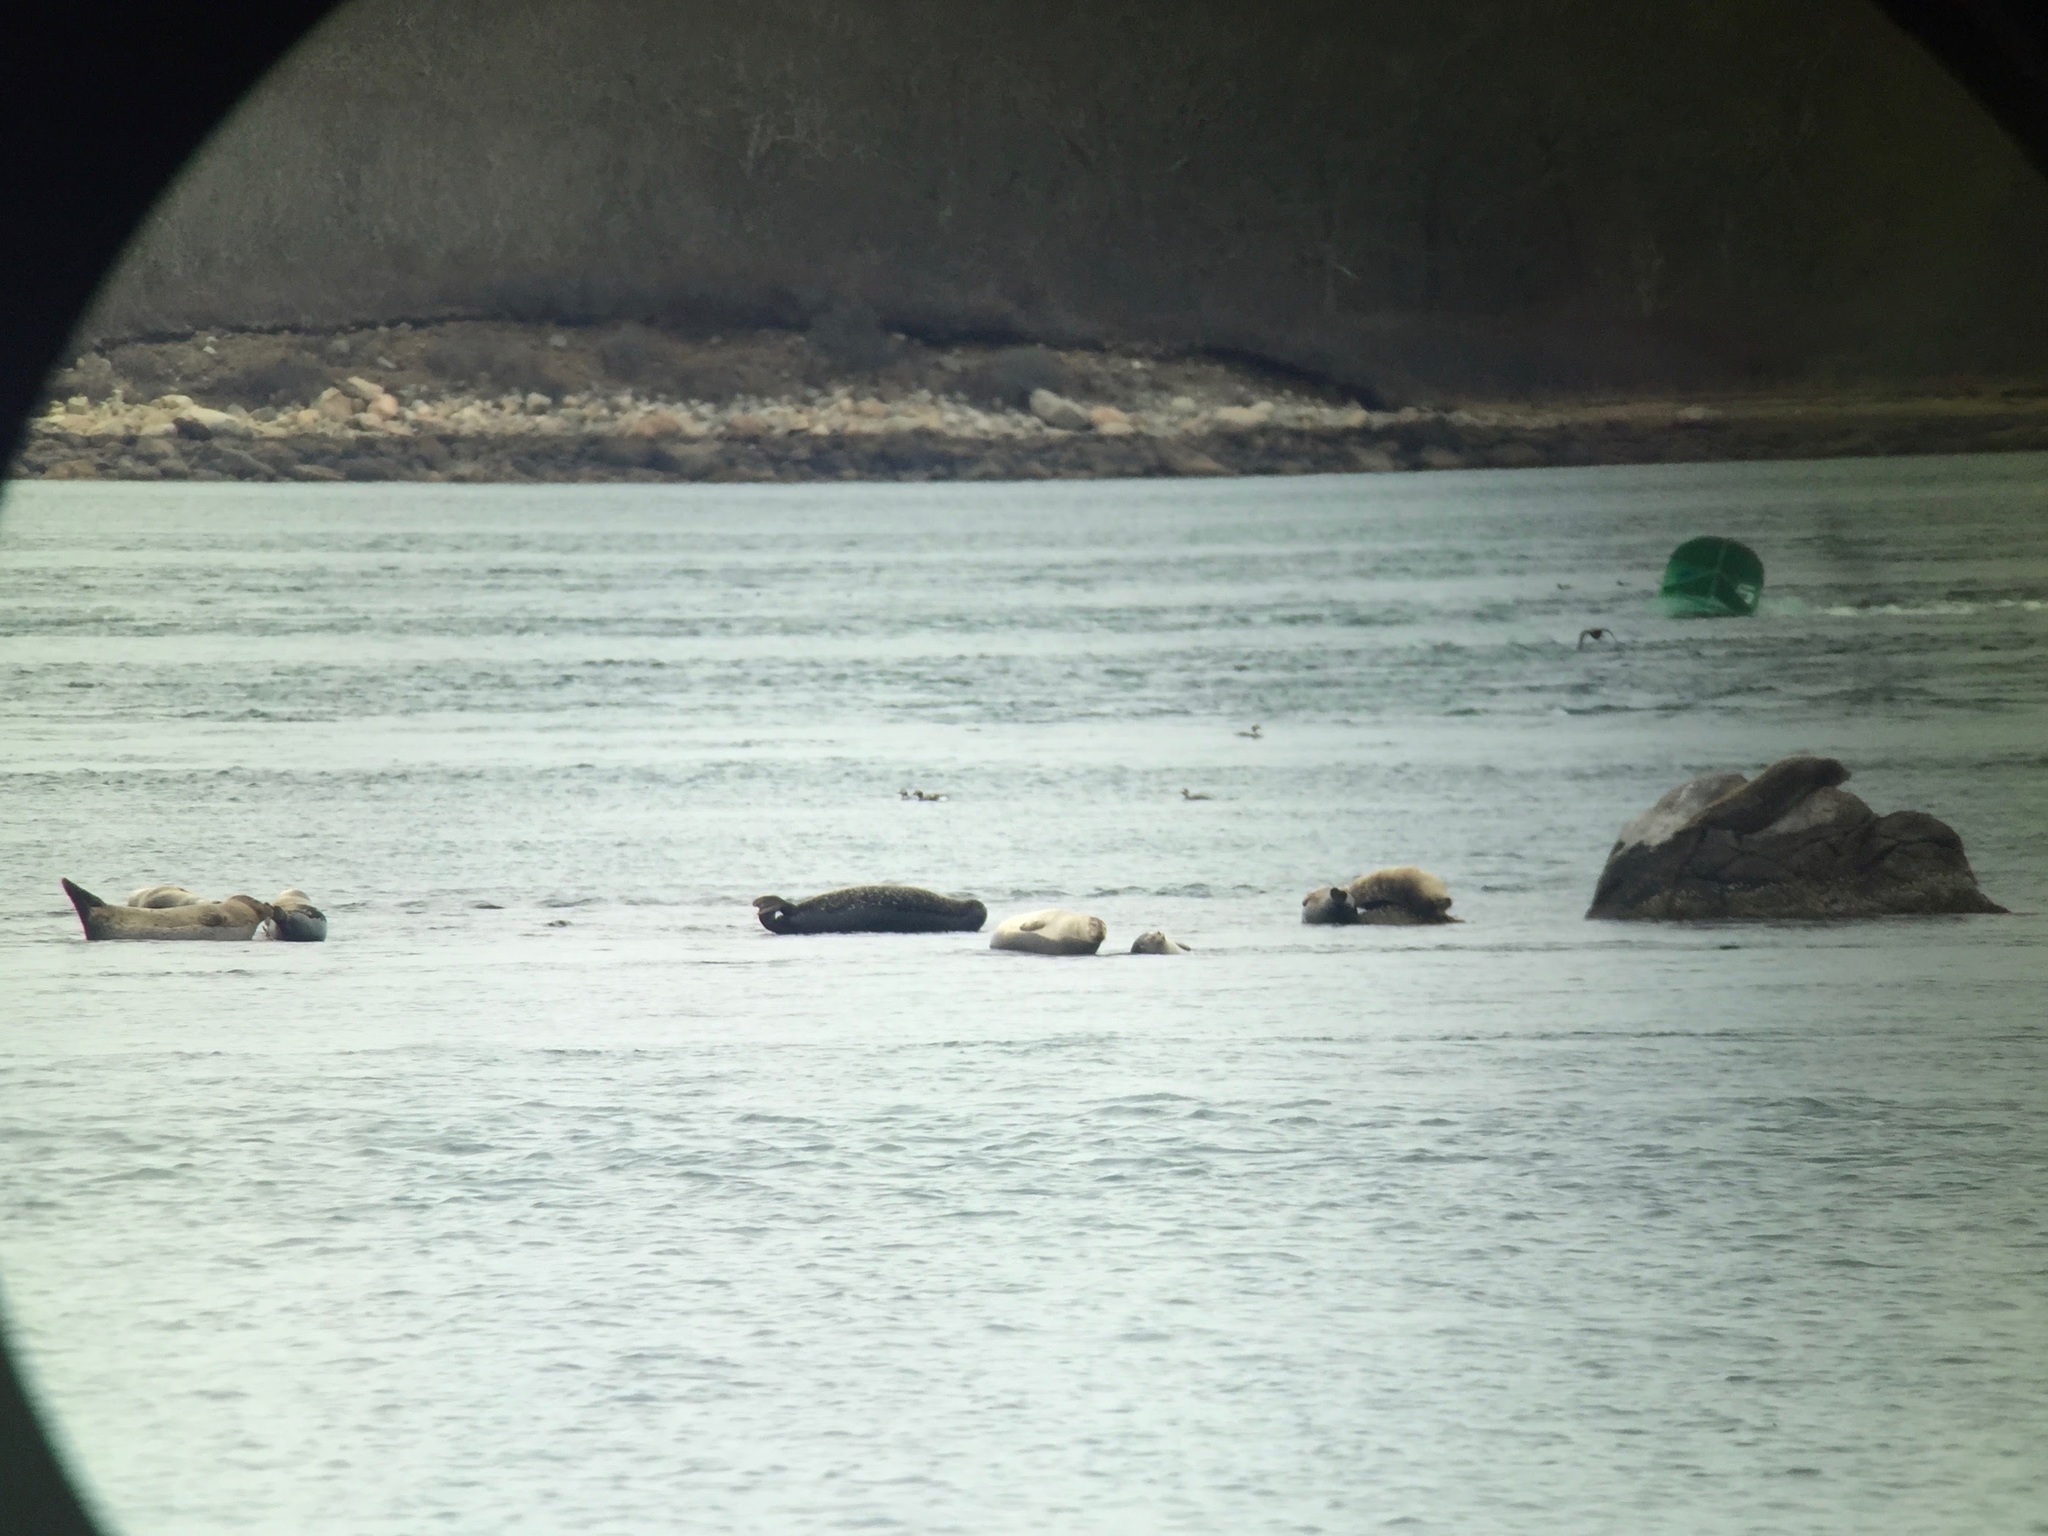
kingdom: Animalia
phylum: Chordata
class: Mammalia
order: Carnivora
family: Phocidae
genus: Phoca
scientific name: Phoca vitulina
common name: Harbor seal
